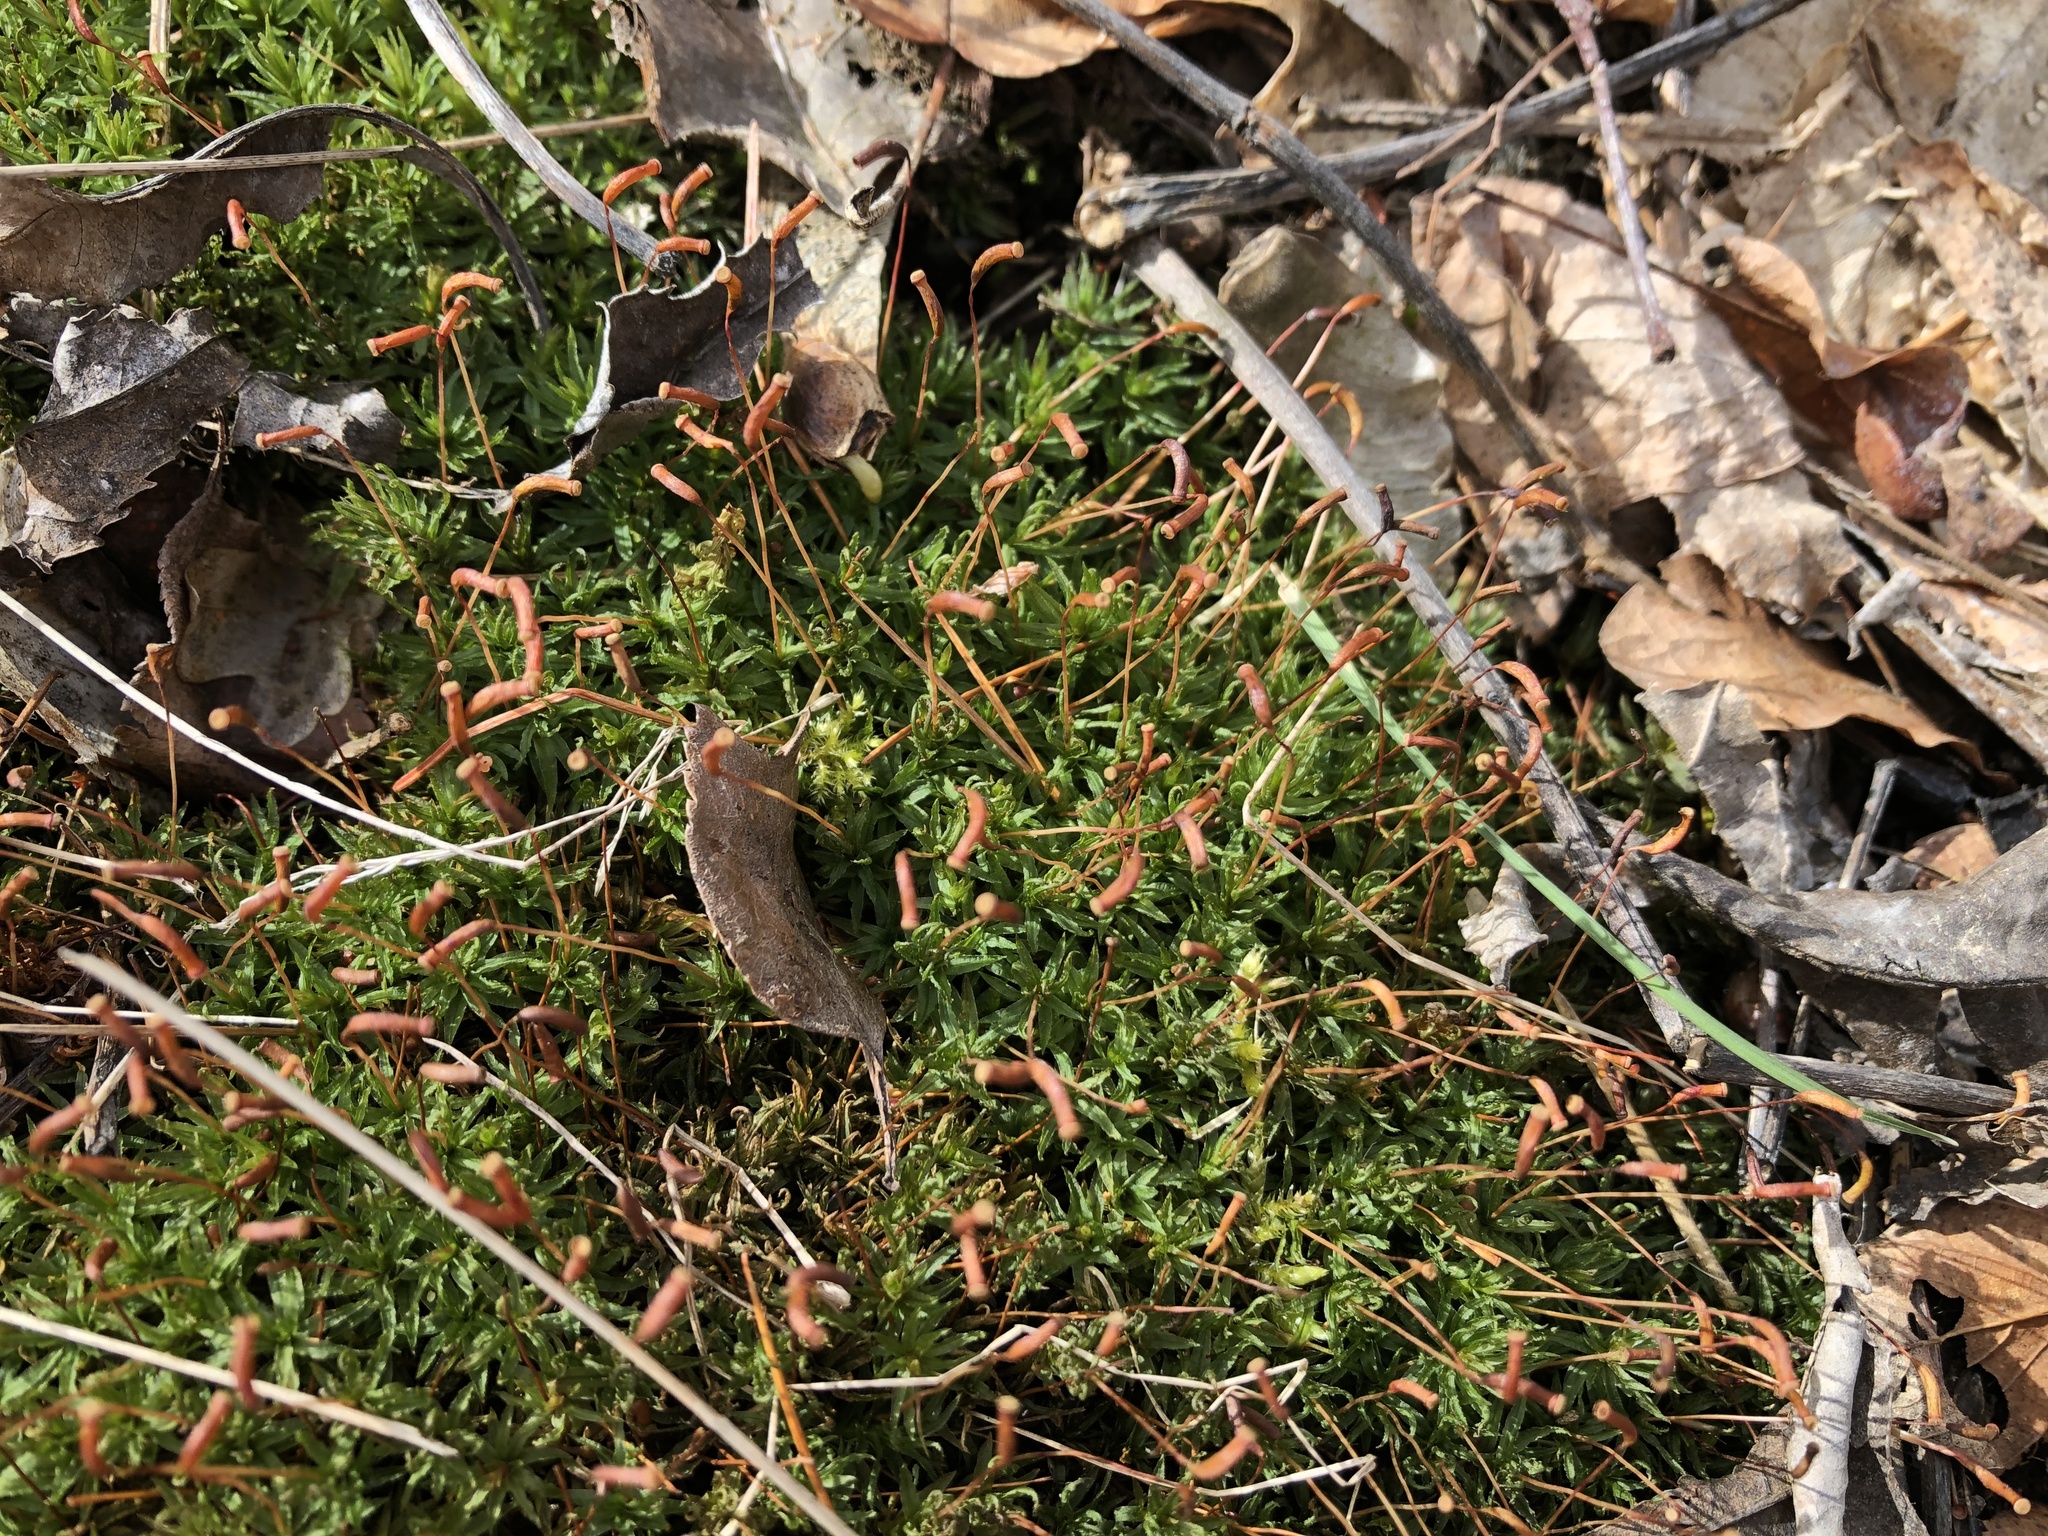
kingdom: Plantae
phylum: Bryophyta
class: Polytrichopsida
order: Polytrichales
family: Polytrichaceae
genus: Atrichum
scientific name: Atrichum undulatum
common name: Common smoothcap
